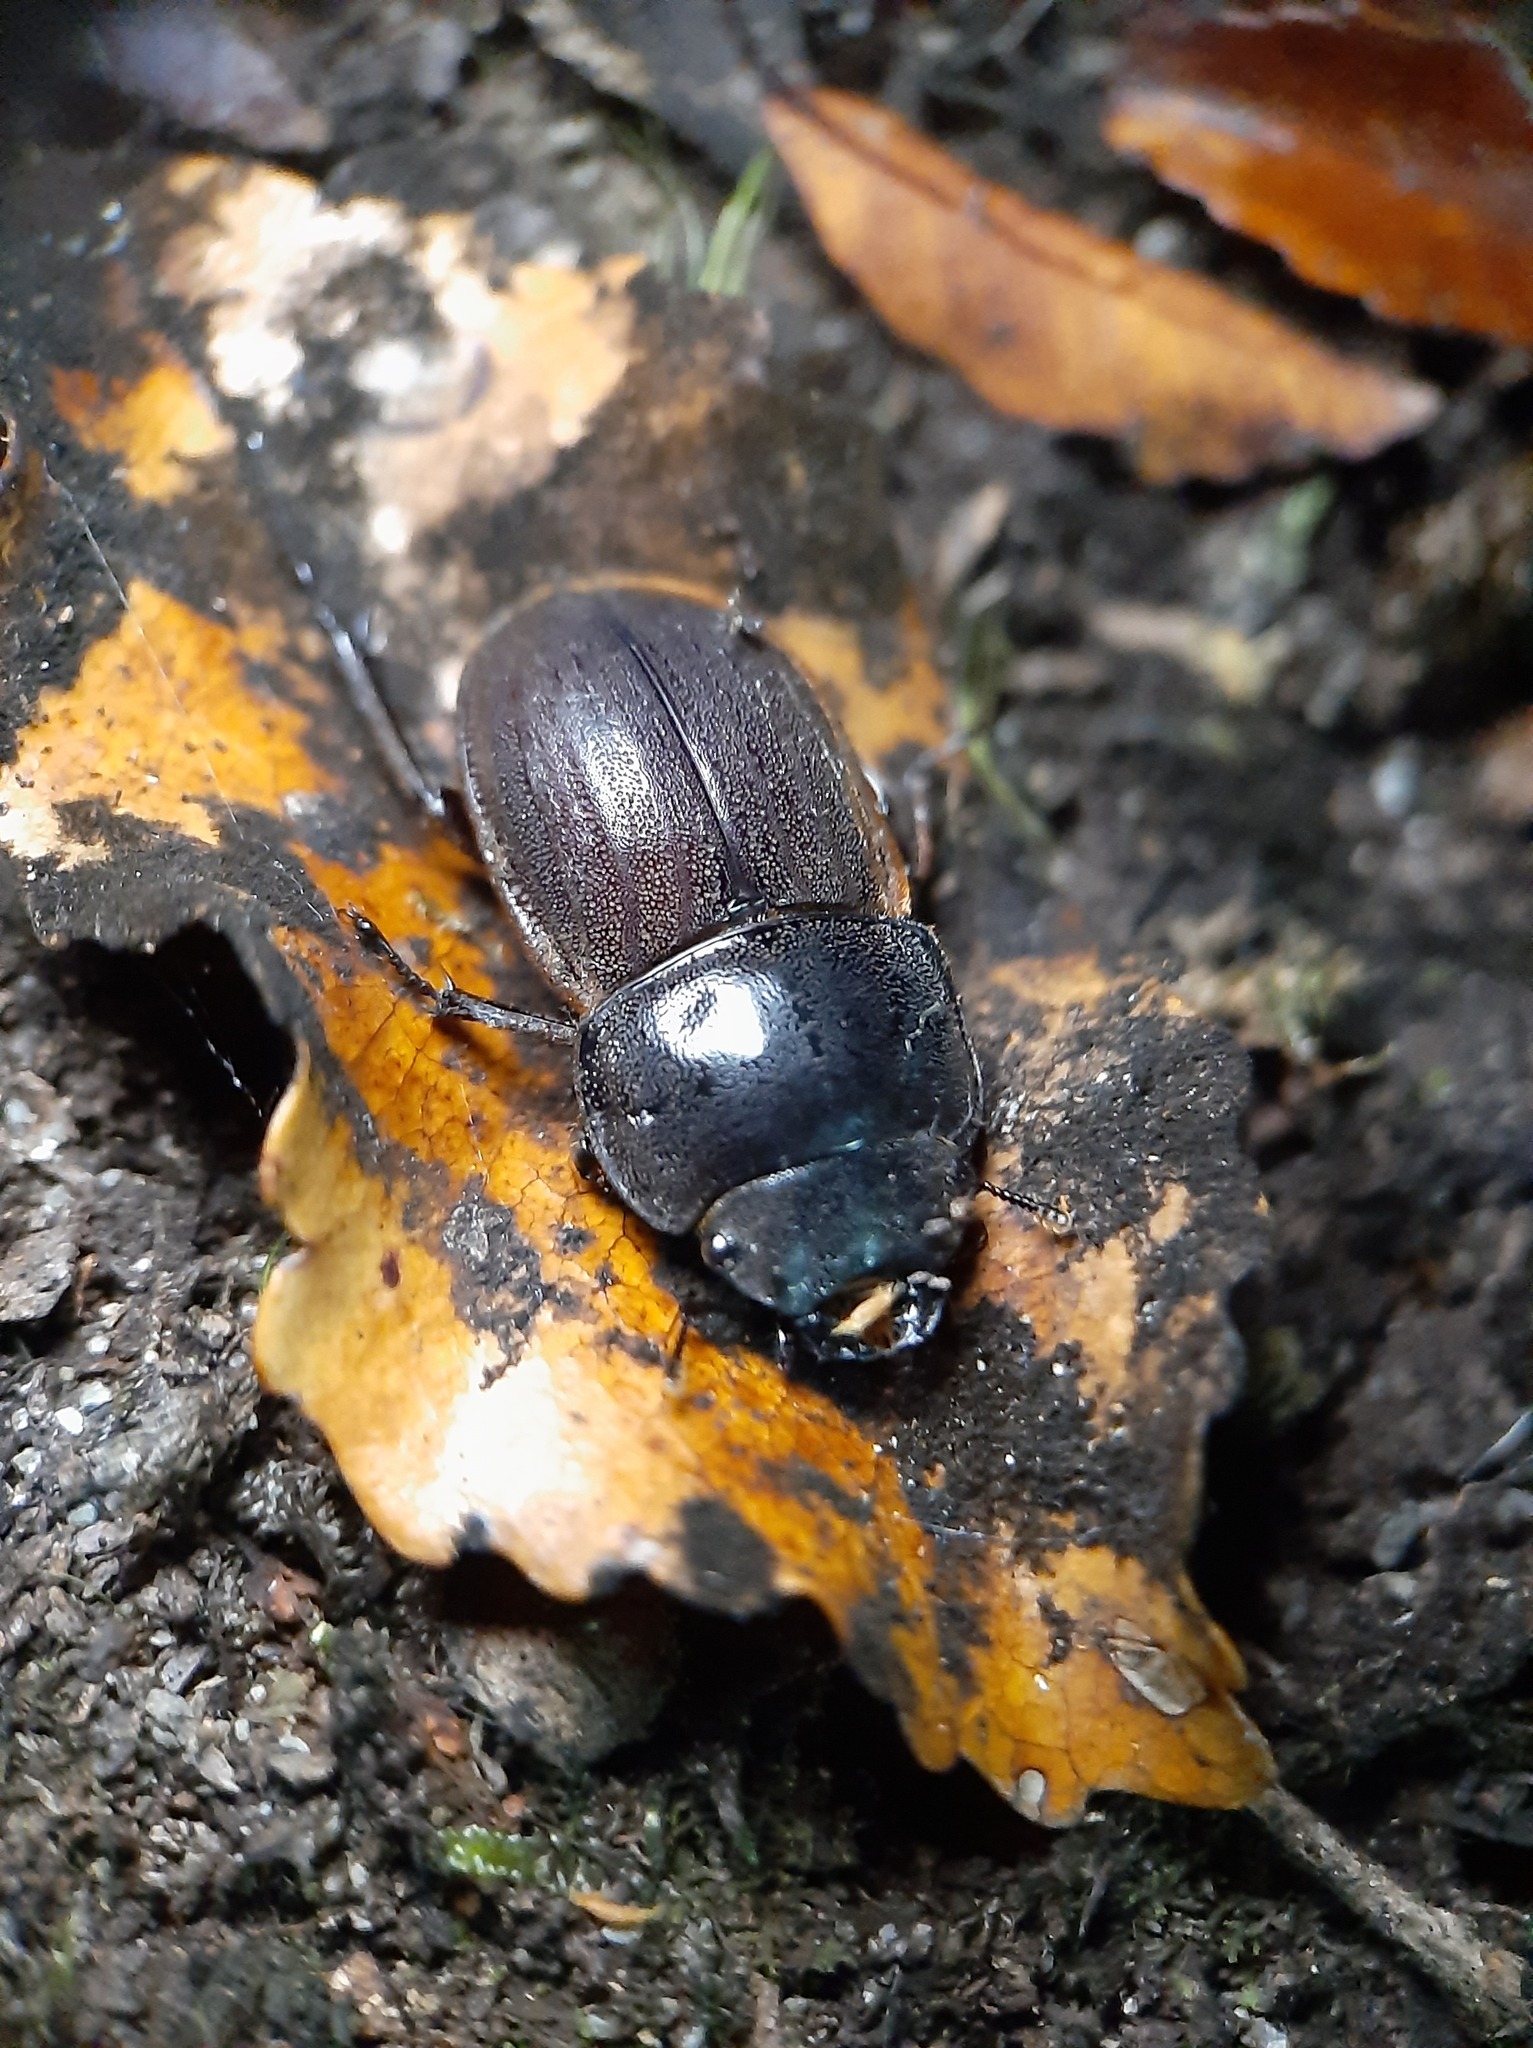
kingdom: Animalia
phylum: Arthropoda
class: Insecta
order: Coleoptera
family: Lucanidae
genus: Geodorcus
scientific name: Geodorcus helmsi
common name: Helm's stag beetle
